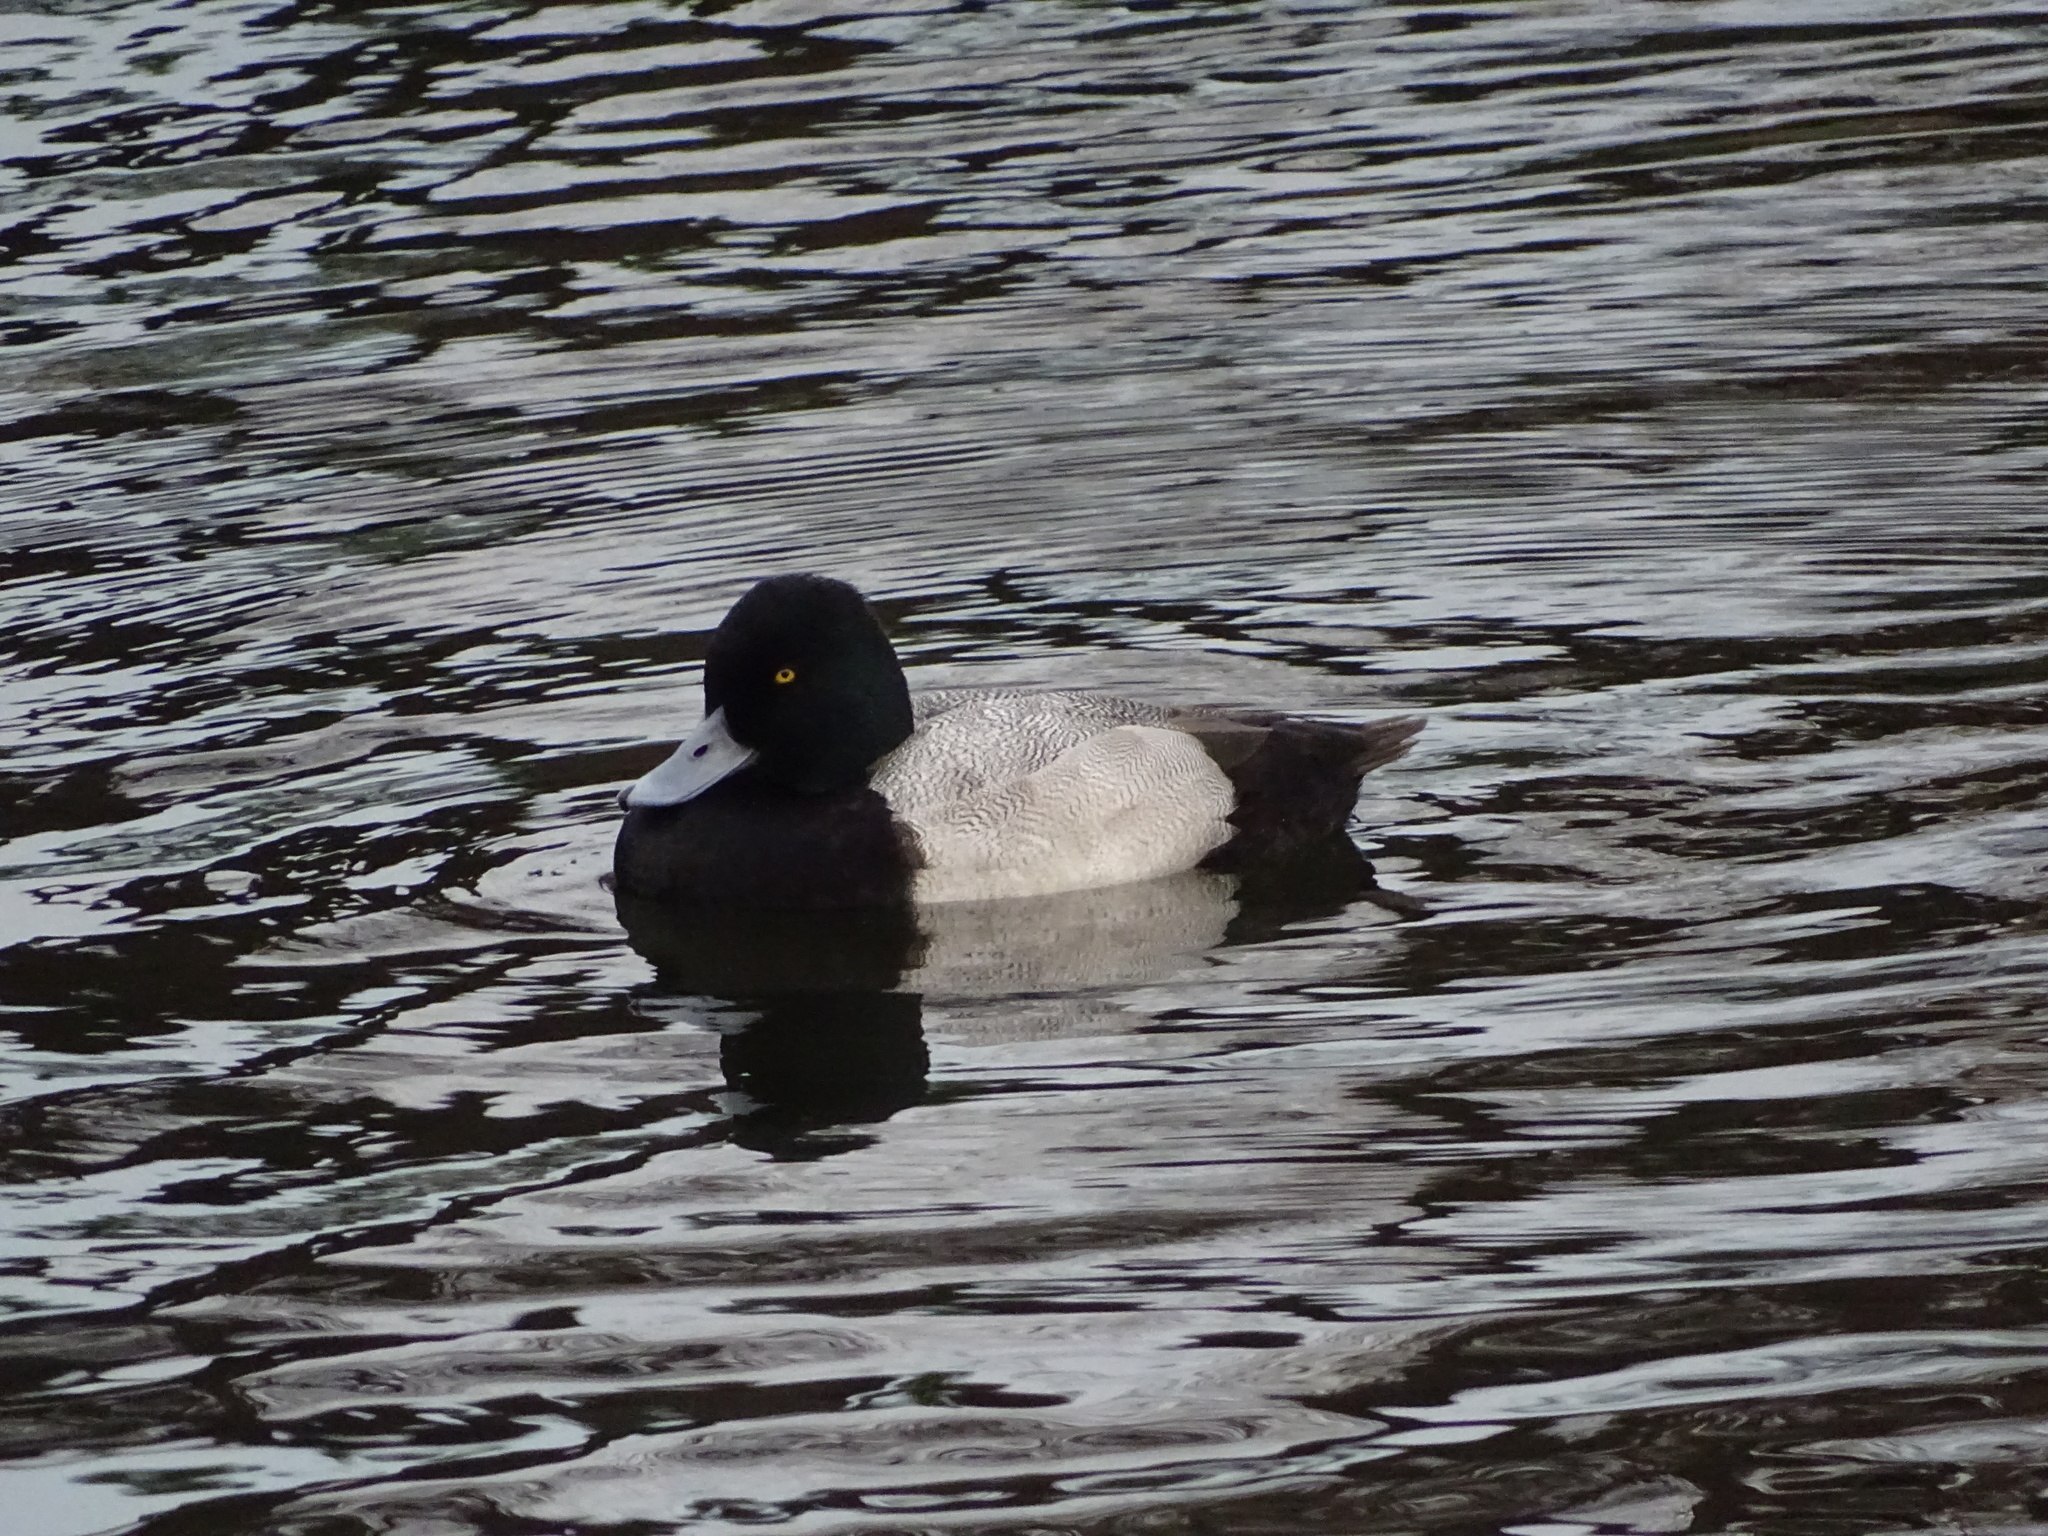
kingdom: Animalia
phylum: Chordata
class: Aves
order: Anseriformes
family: Anatidae
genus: Aythya
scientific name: Aythya affinis
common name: Lesser scaup
